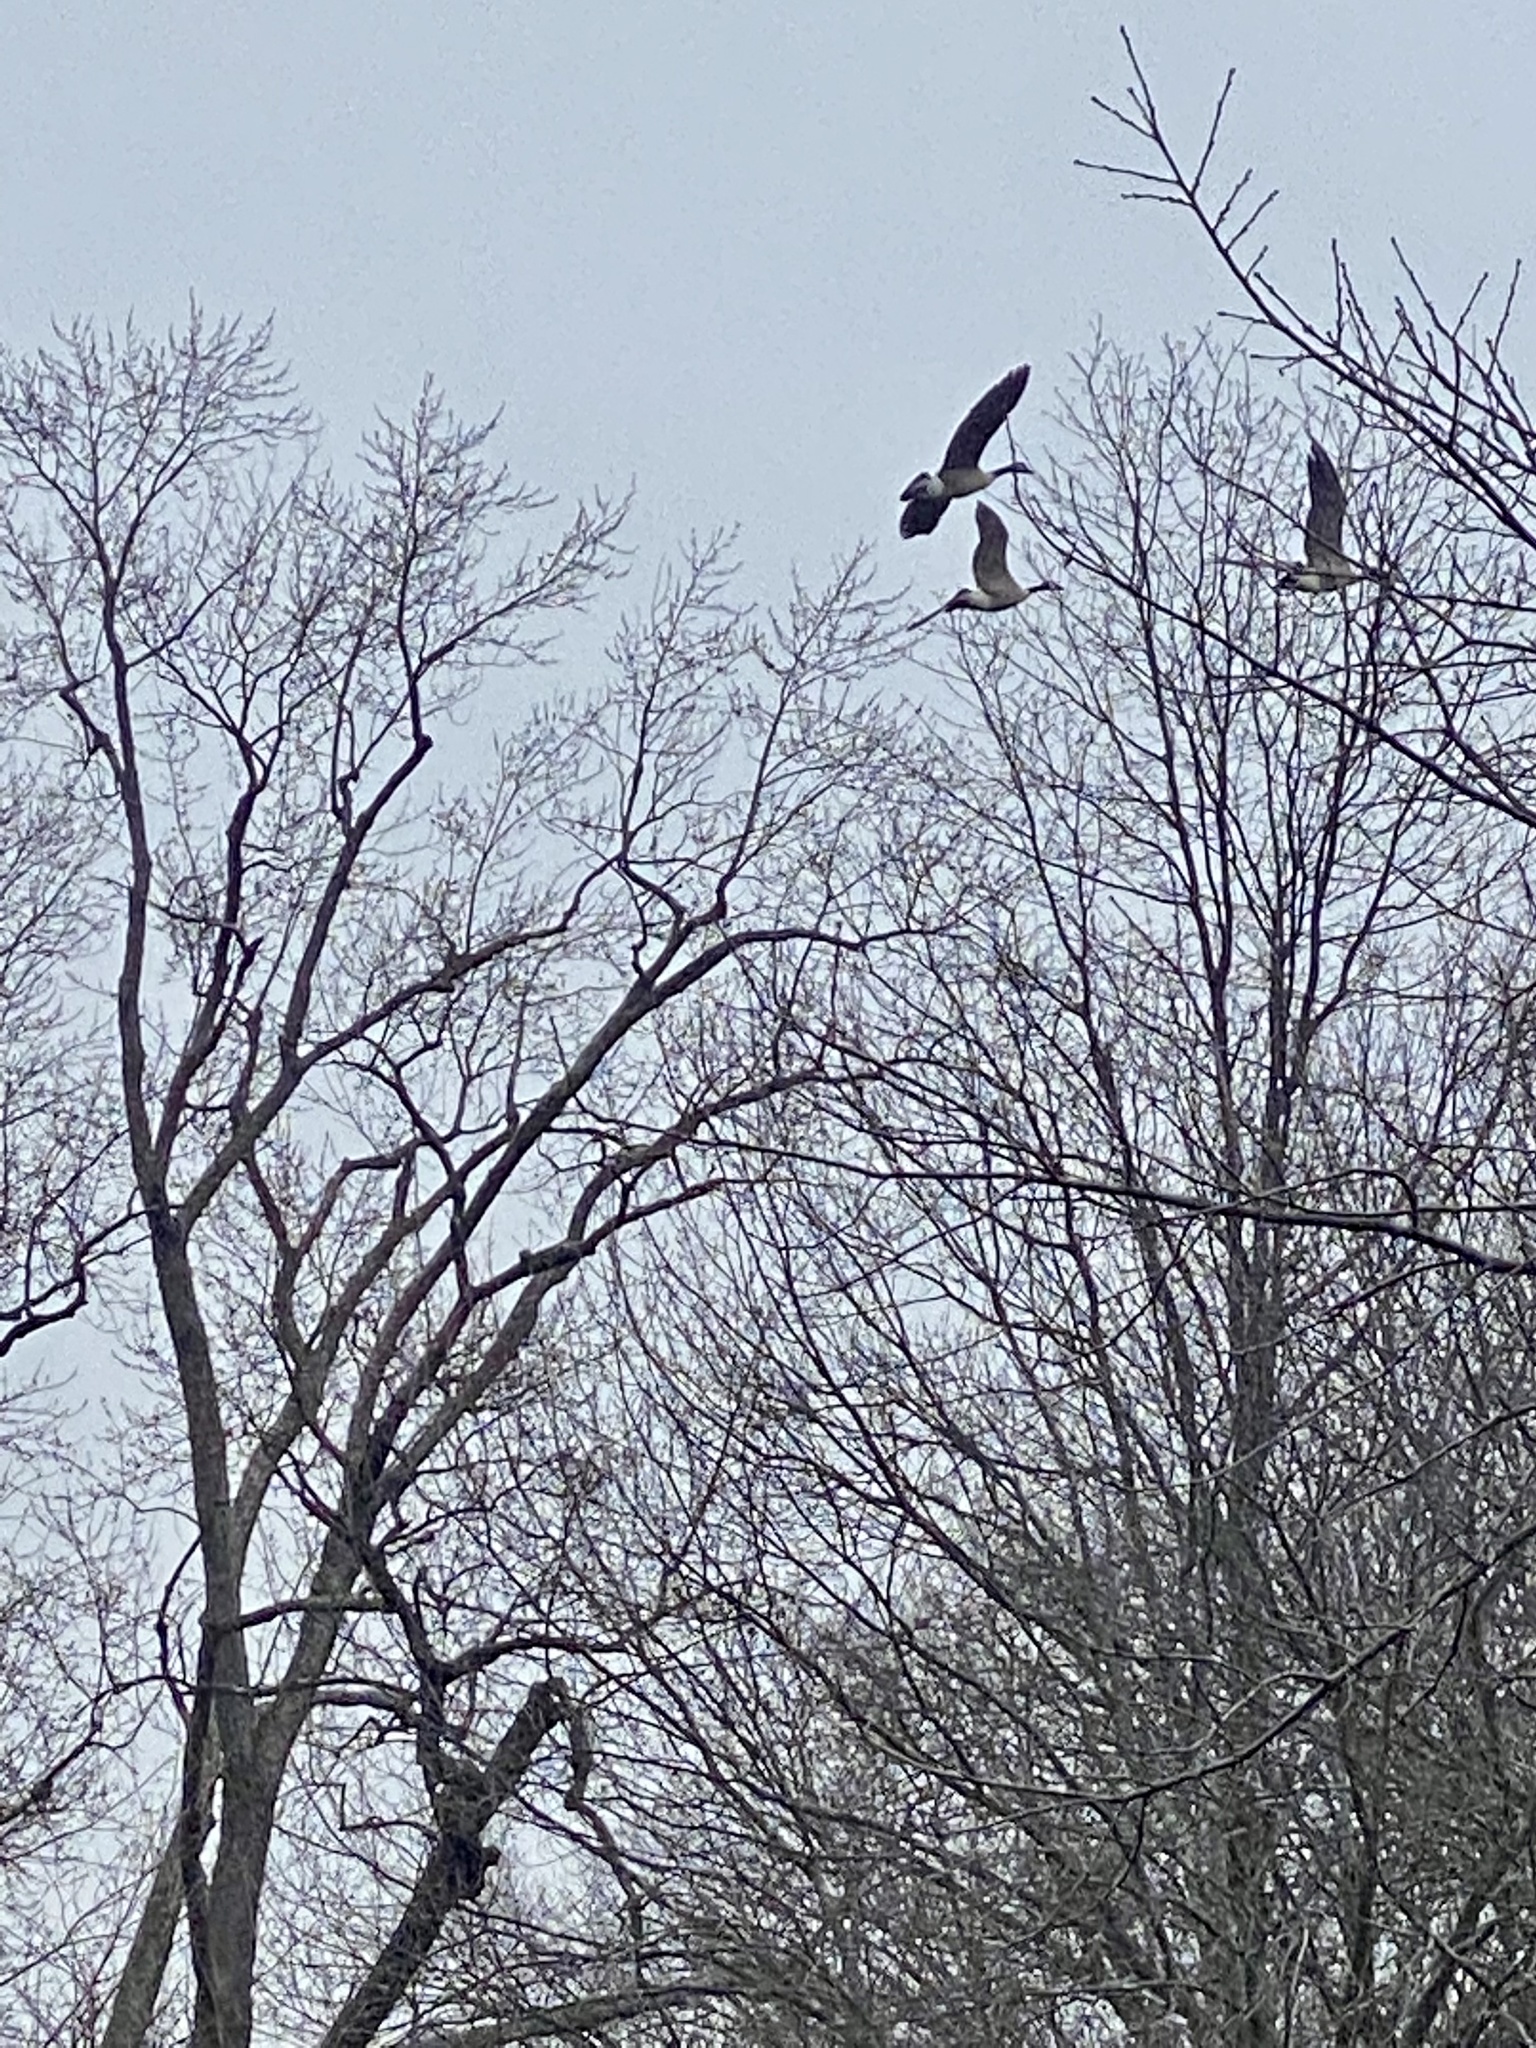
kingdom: Animalia
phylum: Chordata
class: Aves
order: Anseriformes
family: Anatidae
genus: Branta
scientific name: Branta canadensis
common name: Canada goose
